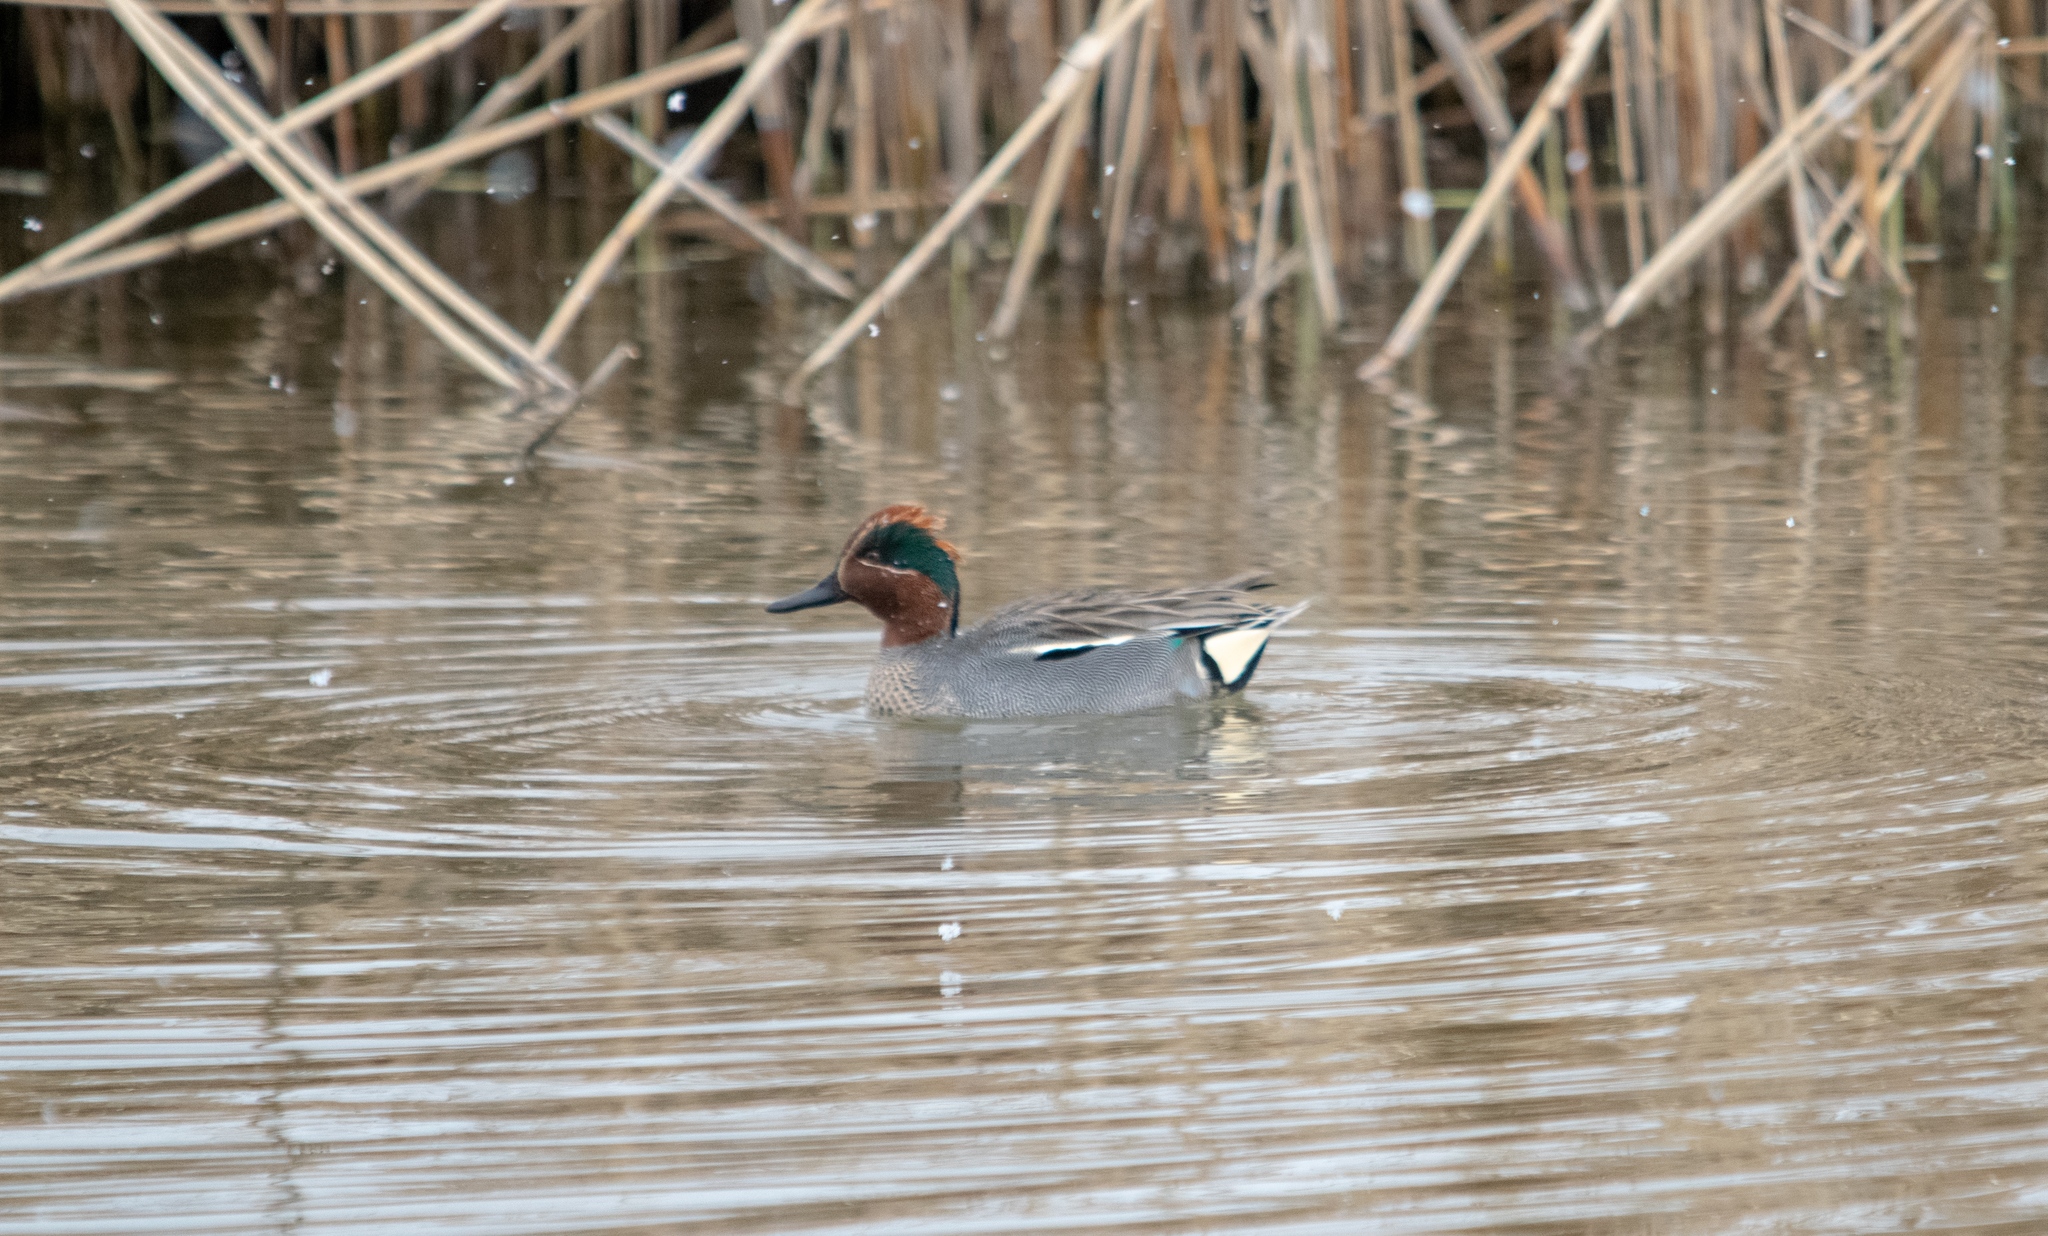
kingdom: Animalia
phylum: Chordata
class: Aves
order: Anseriformes
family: Anatidae
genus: Anas
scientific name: Anas crecca
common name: Eurasian teal
